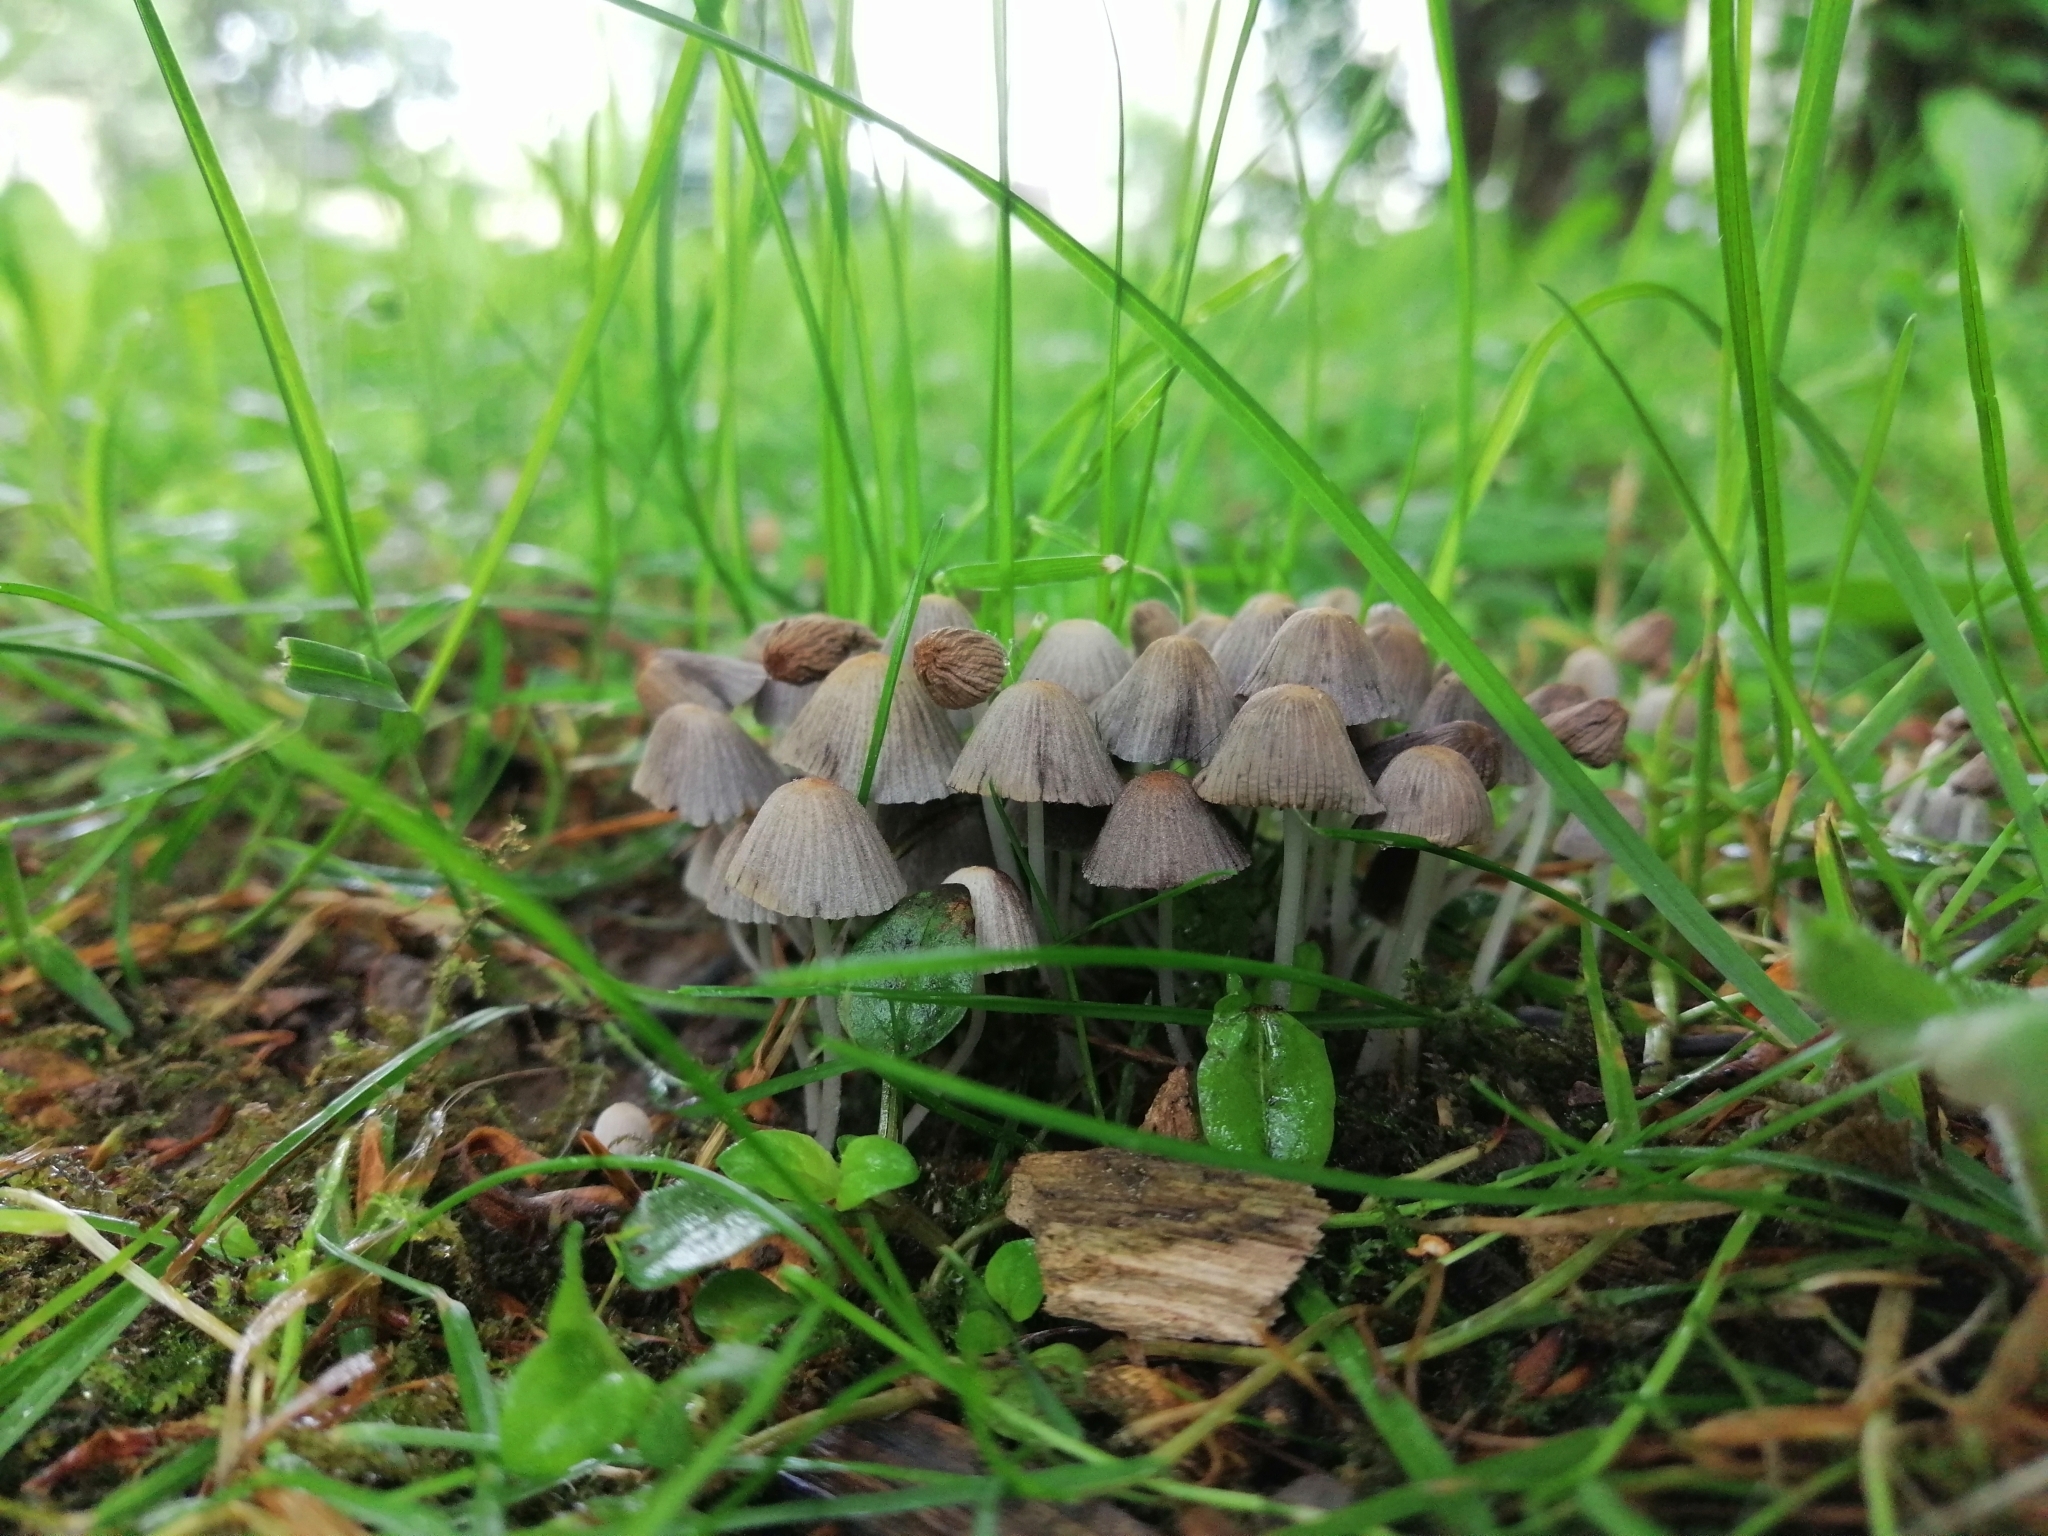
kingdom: Fungi
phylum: Basidiomycota
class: Agaricomycetes
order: Agaricales
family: Psathyrellaceae
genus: Coprinellus
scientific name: Coprinellus disseminatus
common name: Fairies' bonnets
